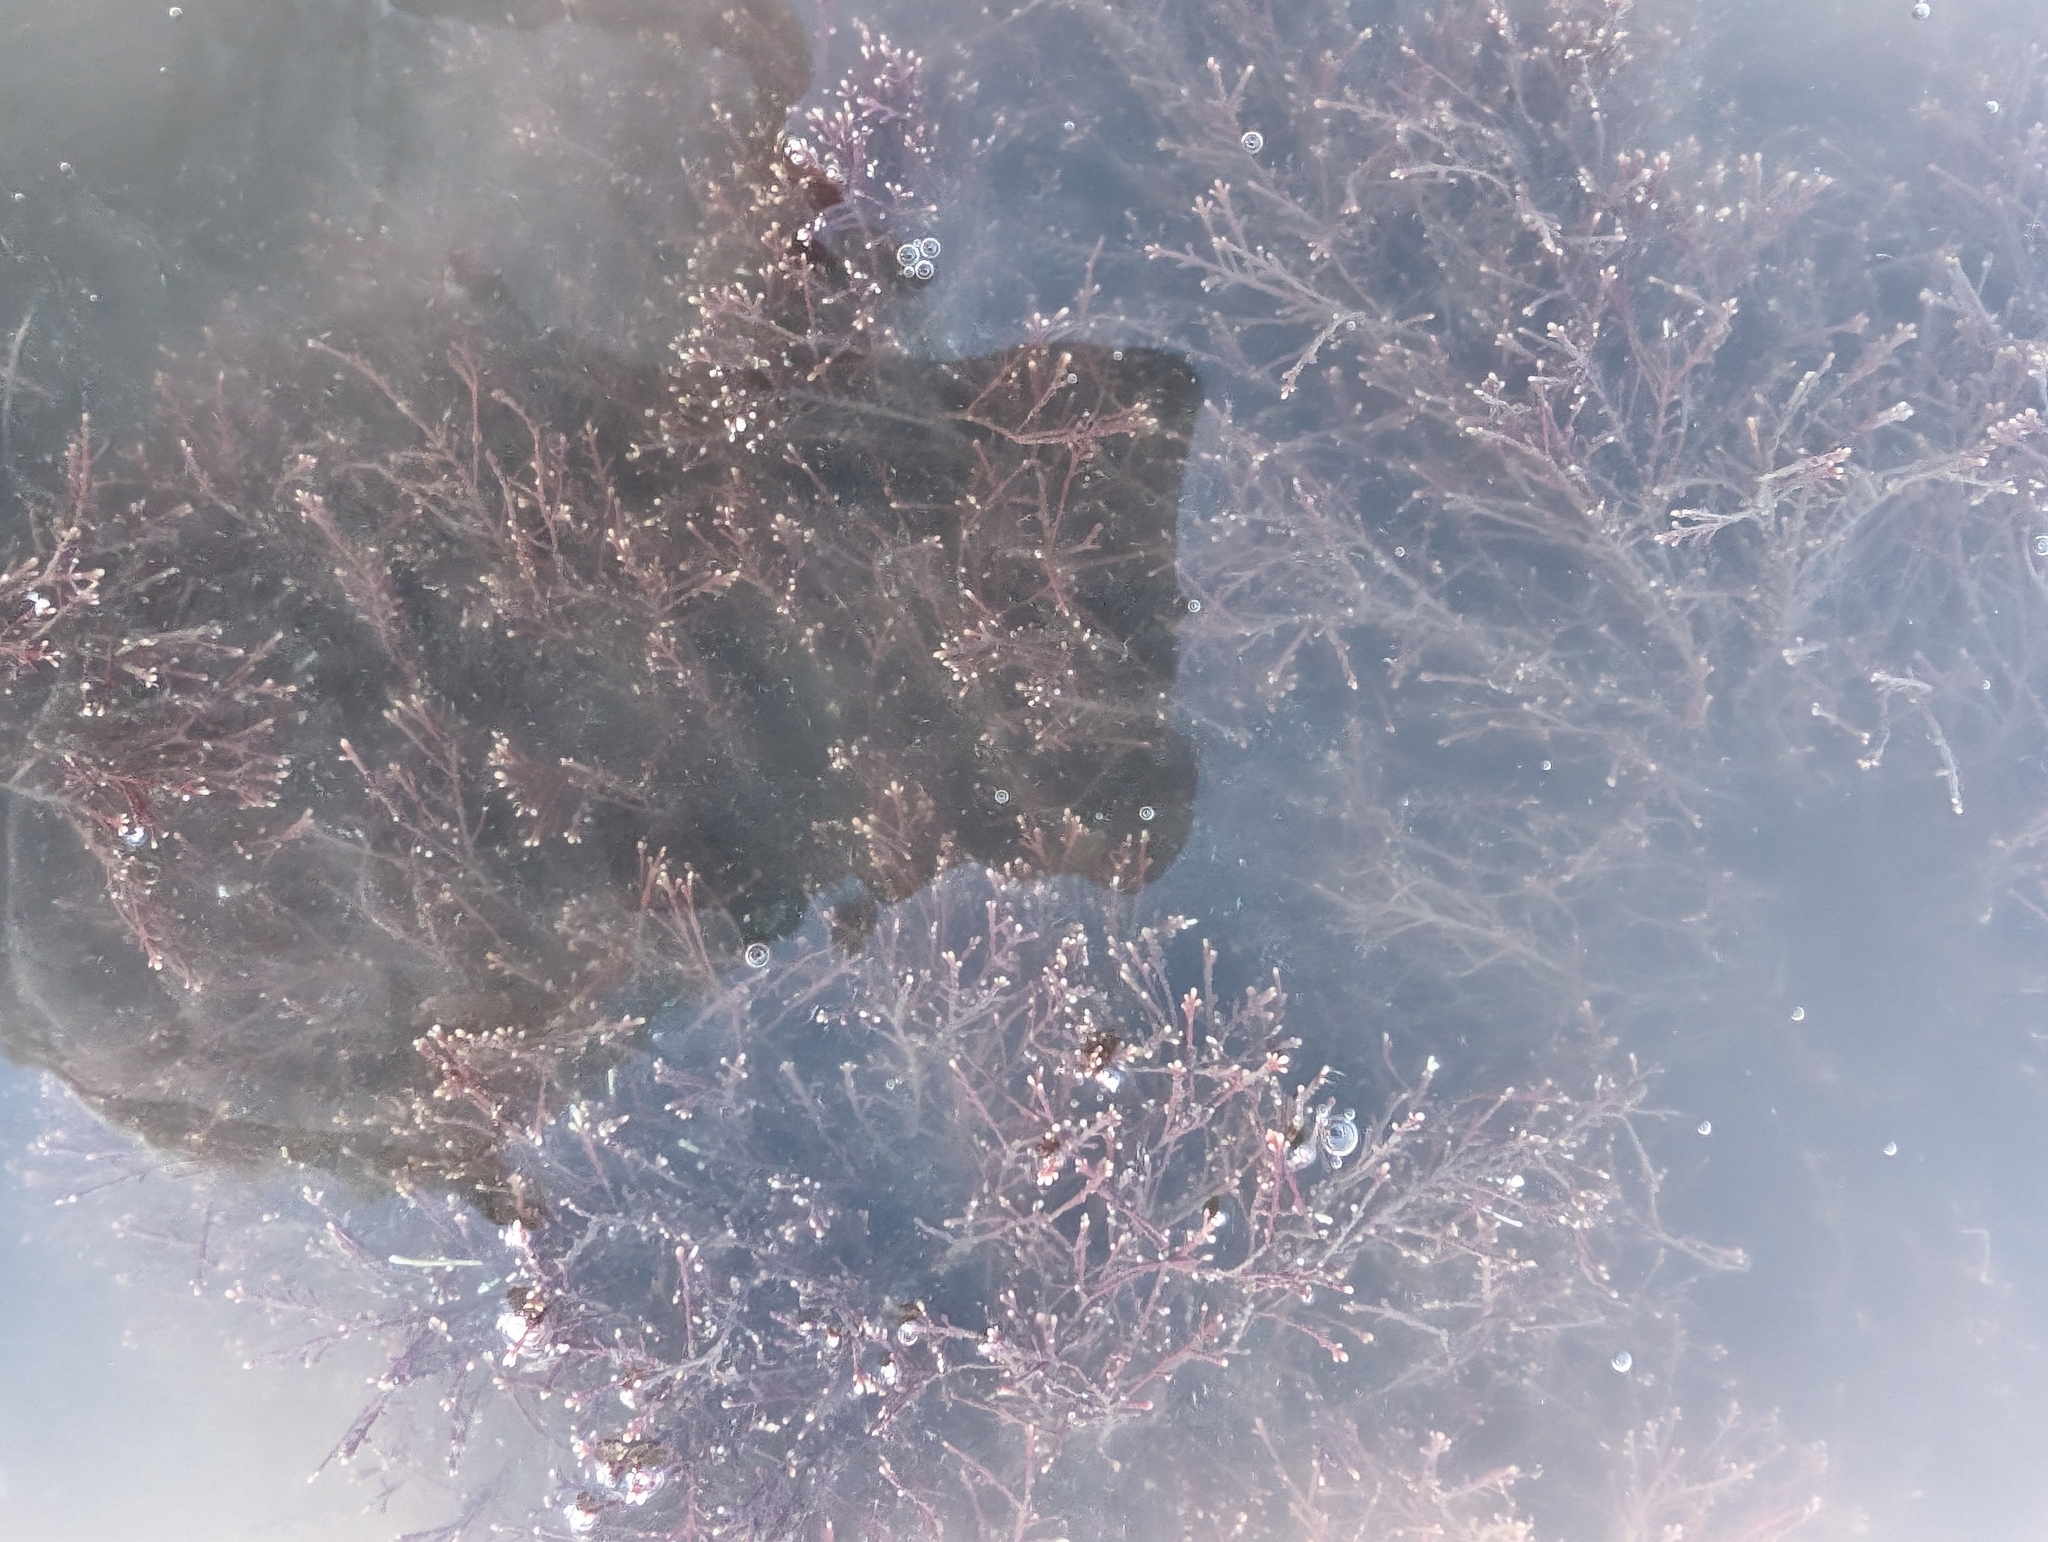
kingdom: Plantae
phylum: Rhodophyta
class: Florideophyceae
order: Corallinales
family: Corallinaceae
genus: Corallina
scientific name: Corallina officinalis
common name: Coral weed
